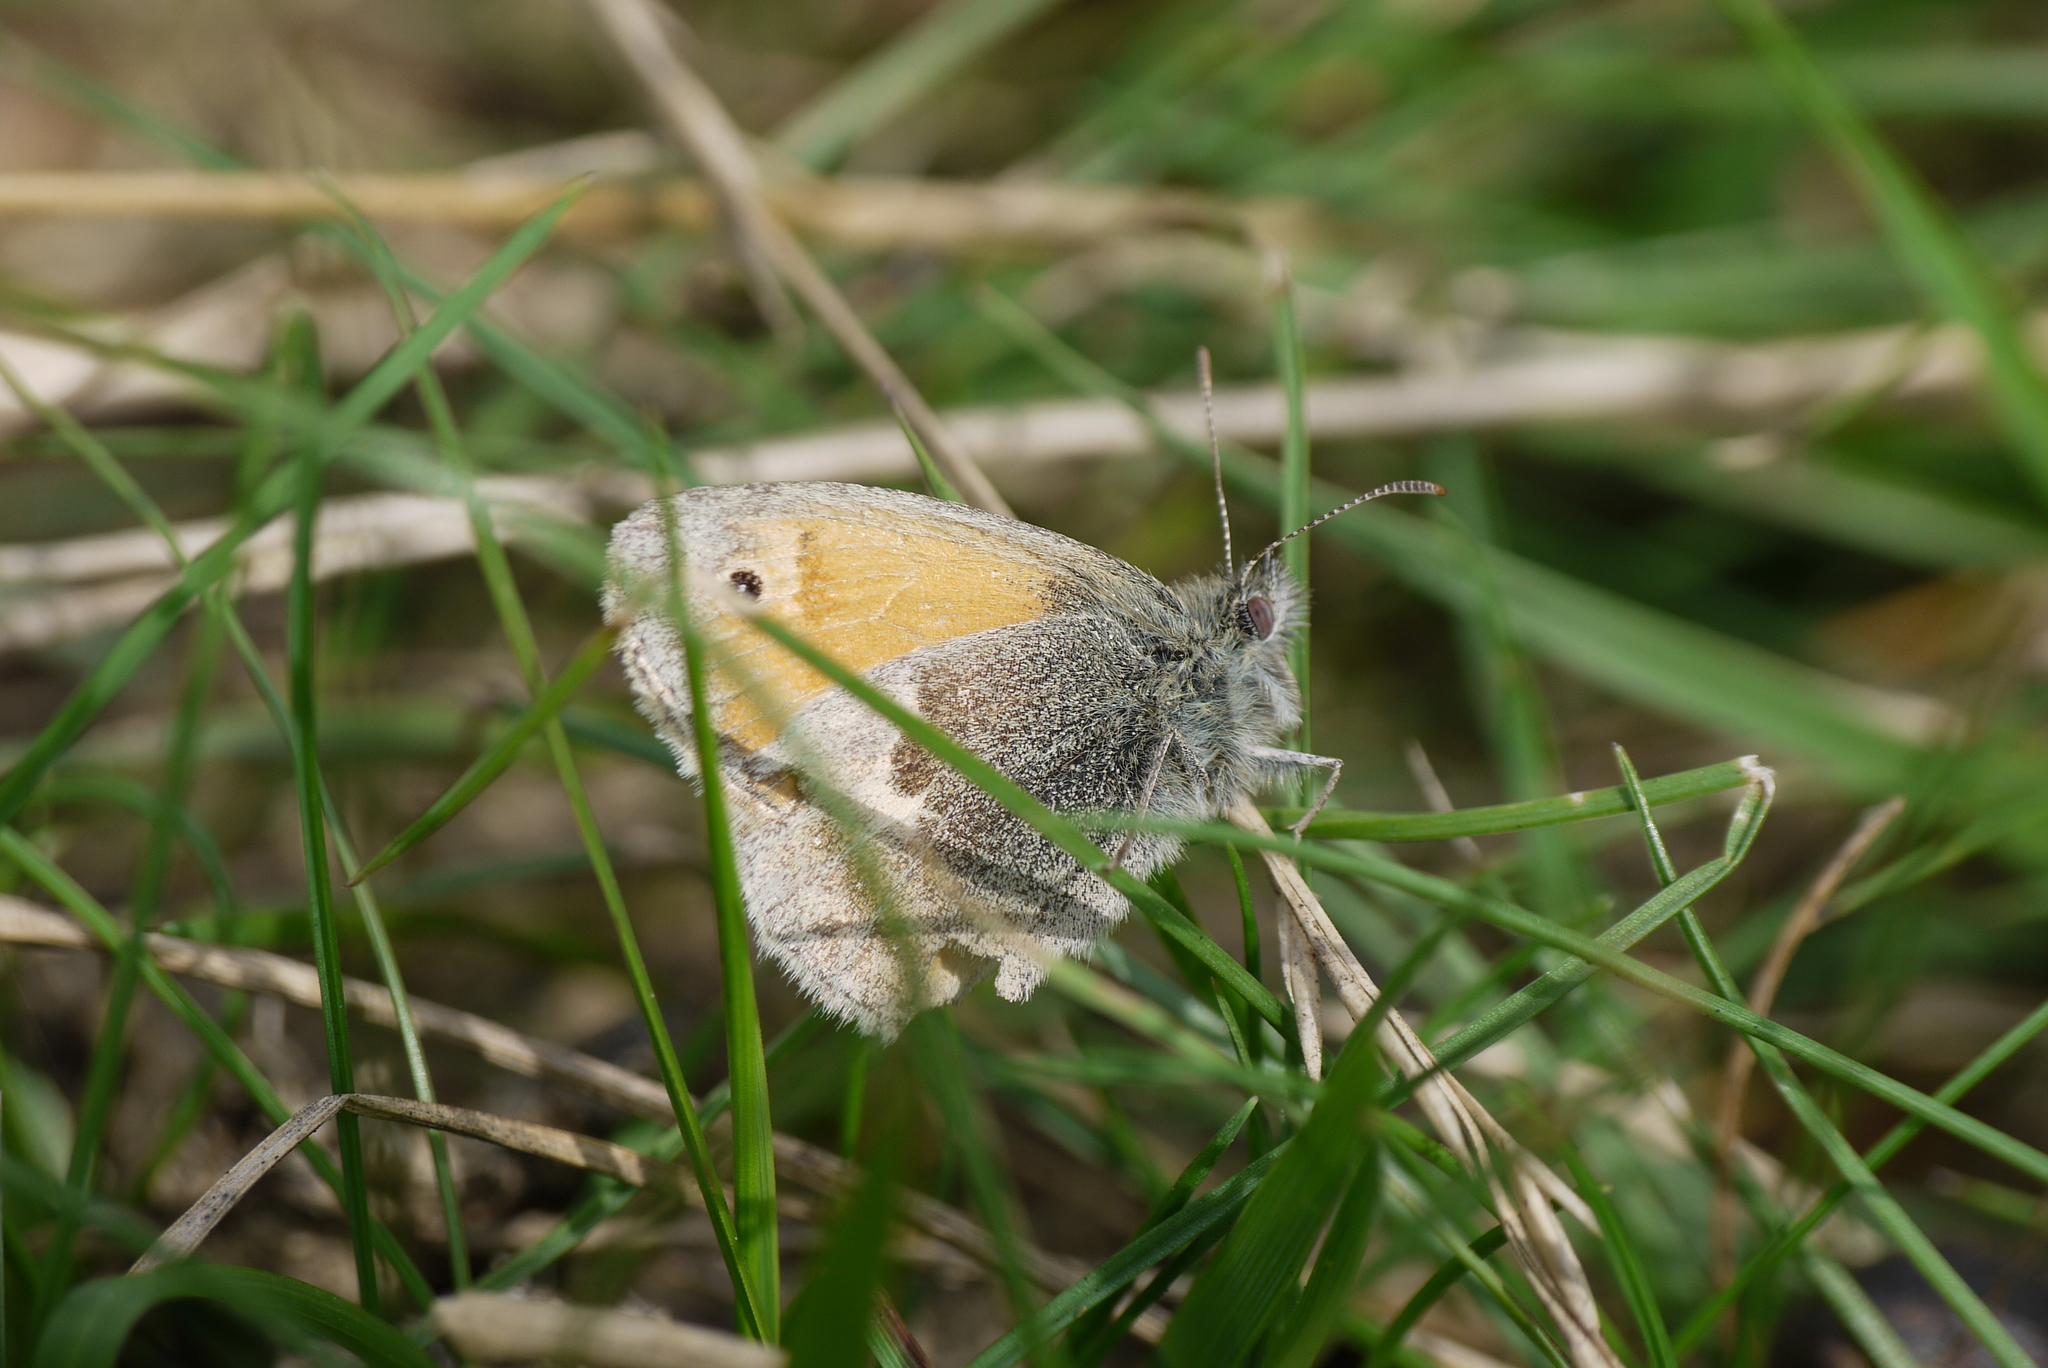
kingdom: Animalia
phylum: Arthropoda
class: Insecta
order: Lepidoptera
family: Nymphalidae
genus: Coenonympha
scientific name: Coenonympha pamphilus
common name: Small heath
